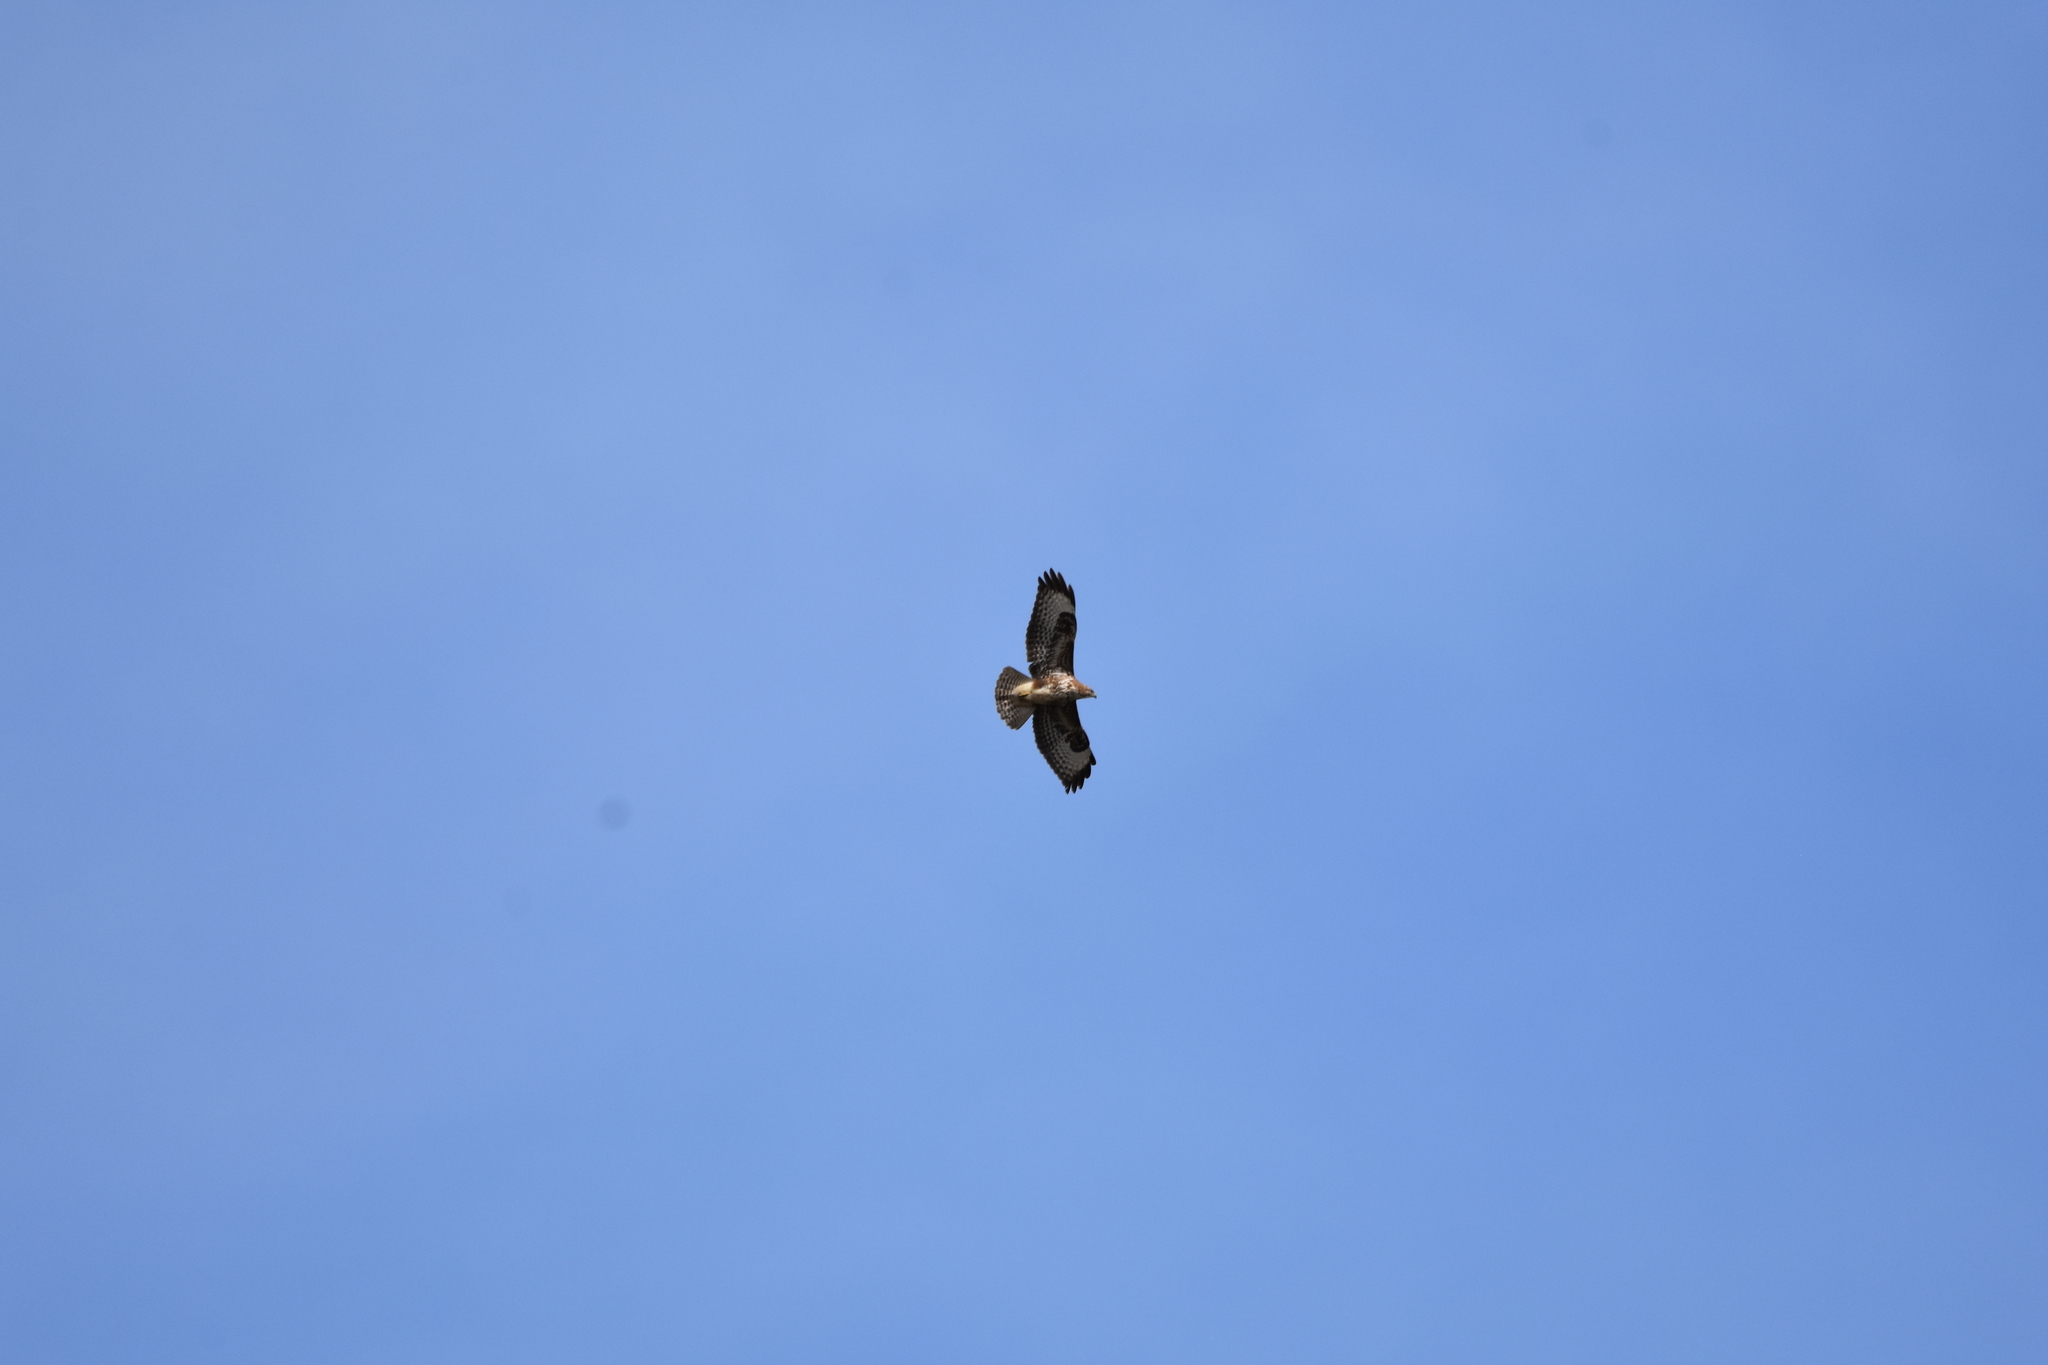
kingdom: Animalia
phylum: Chordata
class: Aves
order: Accipitriformes
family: Accipitridae
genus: Buteo
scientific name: Buteo buteo
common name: Common buzzard
